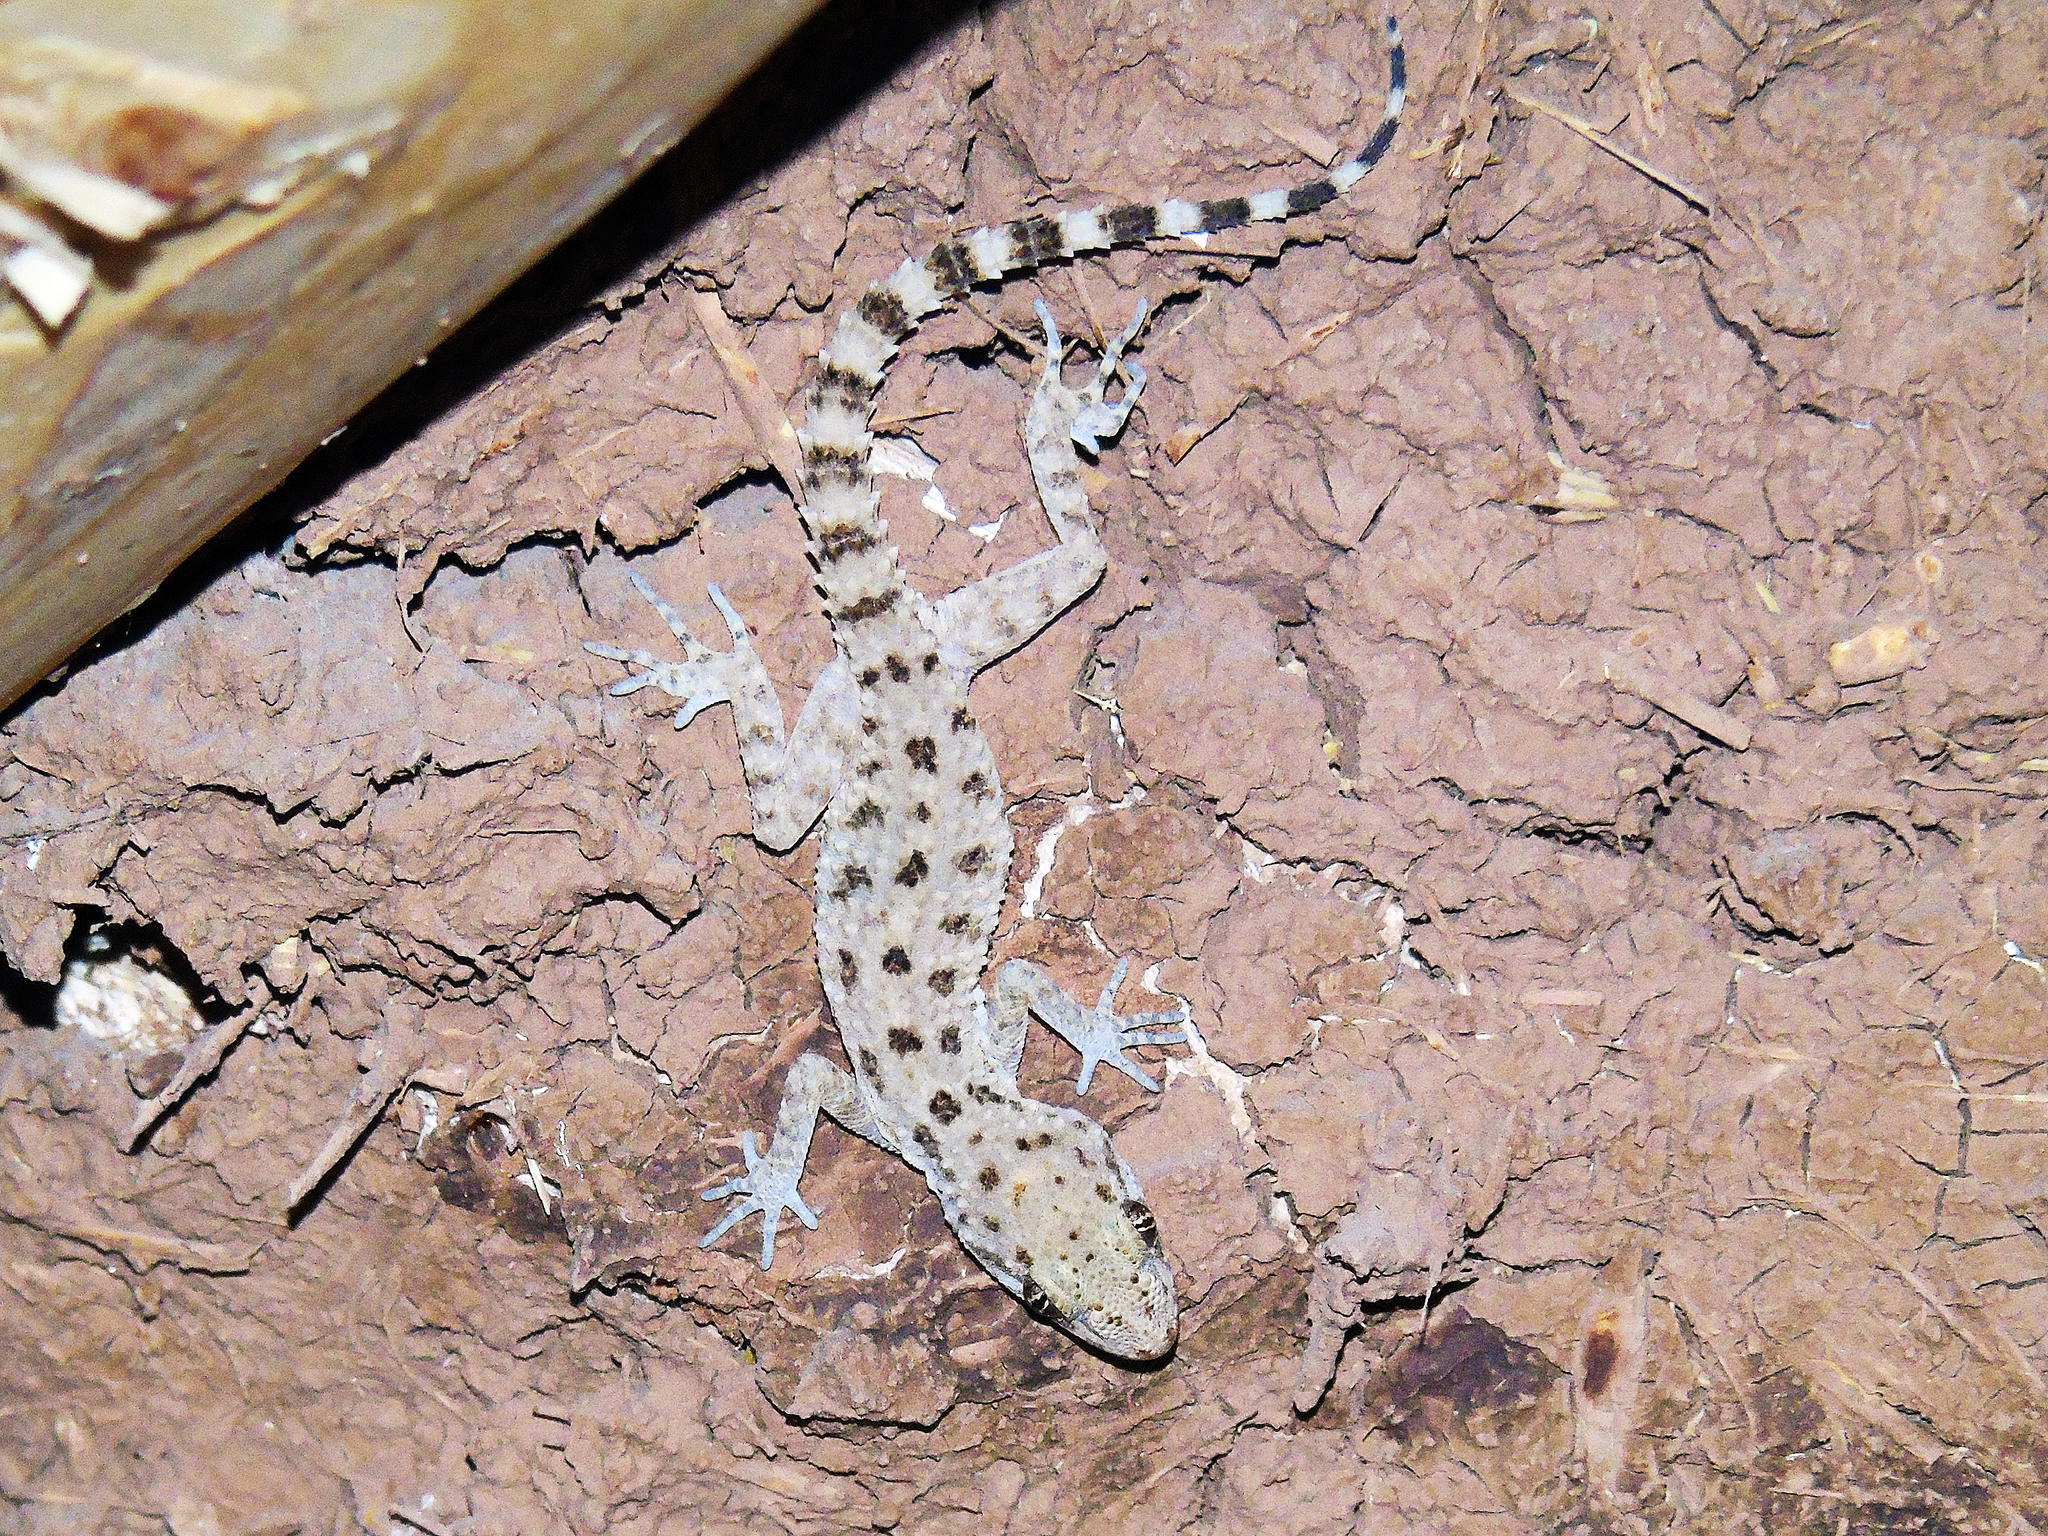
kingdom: Animalia
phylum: Chordata
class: Squamata
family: Gekkonidae
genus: Cyrtopodion
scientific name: Cyrtopodion scabrum
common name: Rough-tailed gecko
